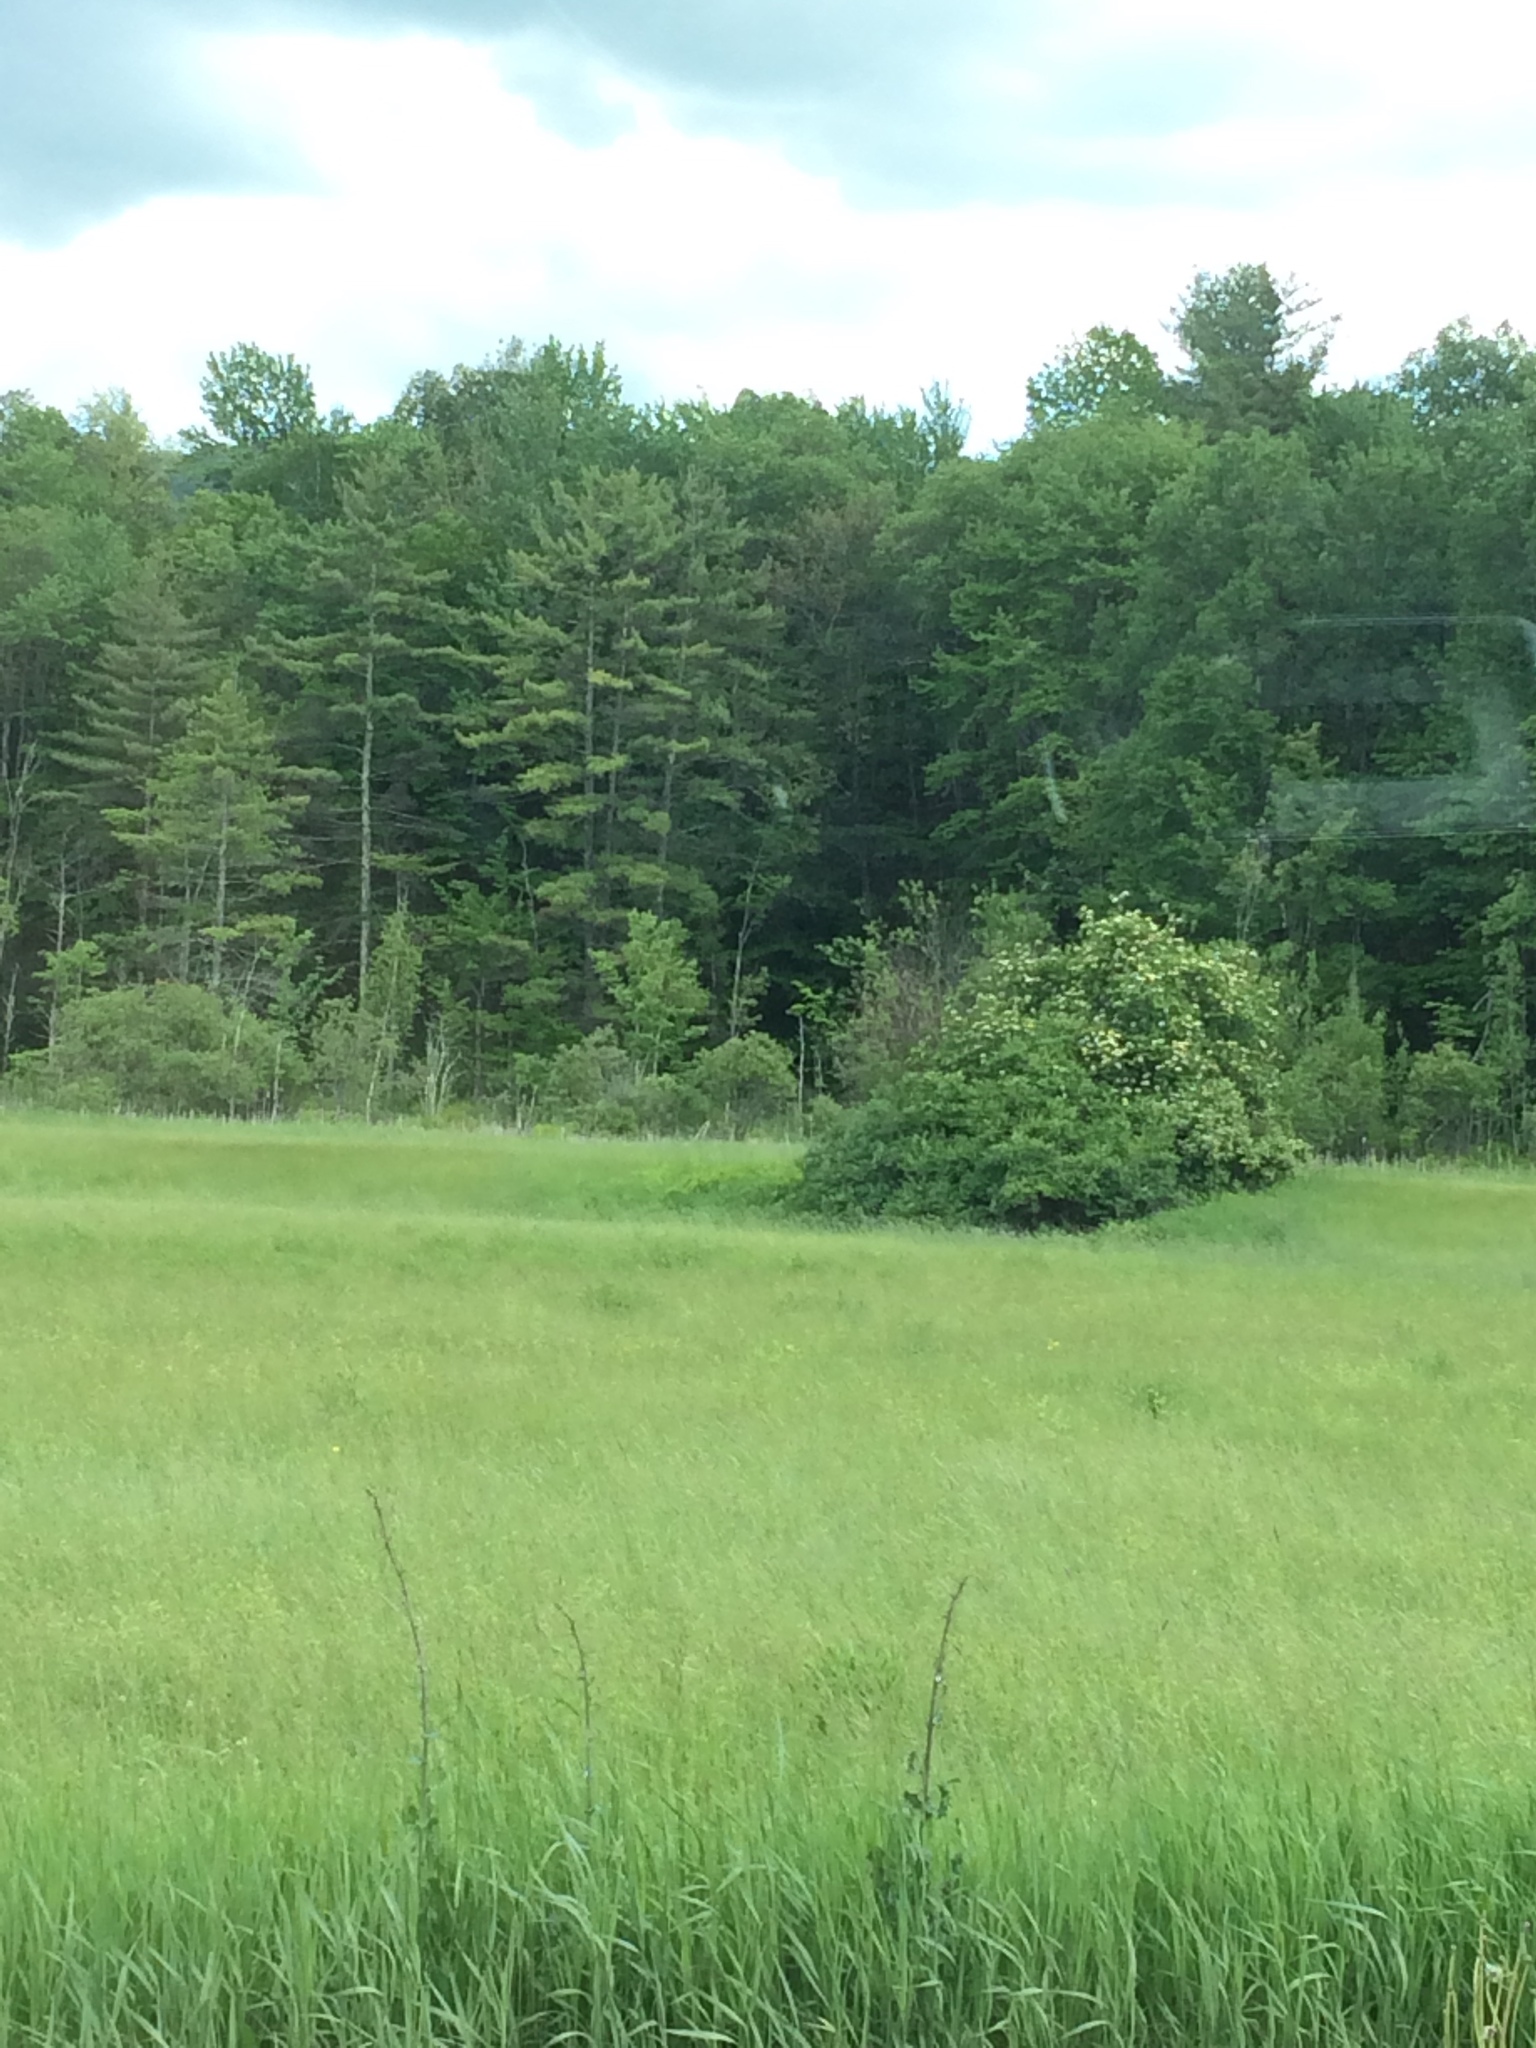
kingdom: Plantae
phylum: Tracheophyta
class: Pinopsida
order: Pinales
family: Pinaceae
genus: Pinus
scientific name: Pinus strobus
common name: Weymouth pine
